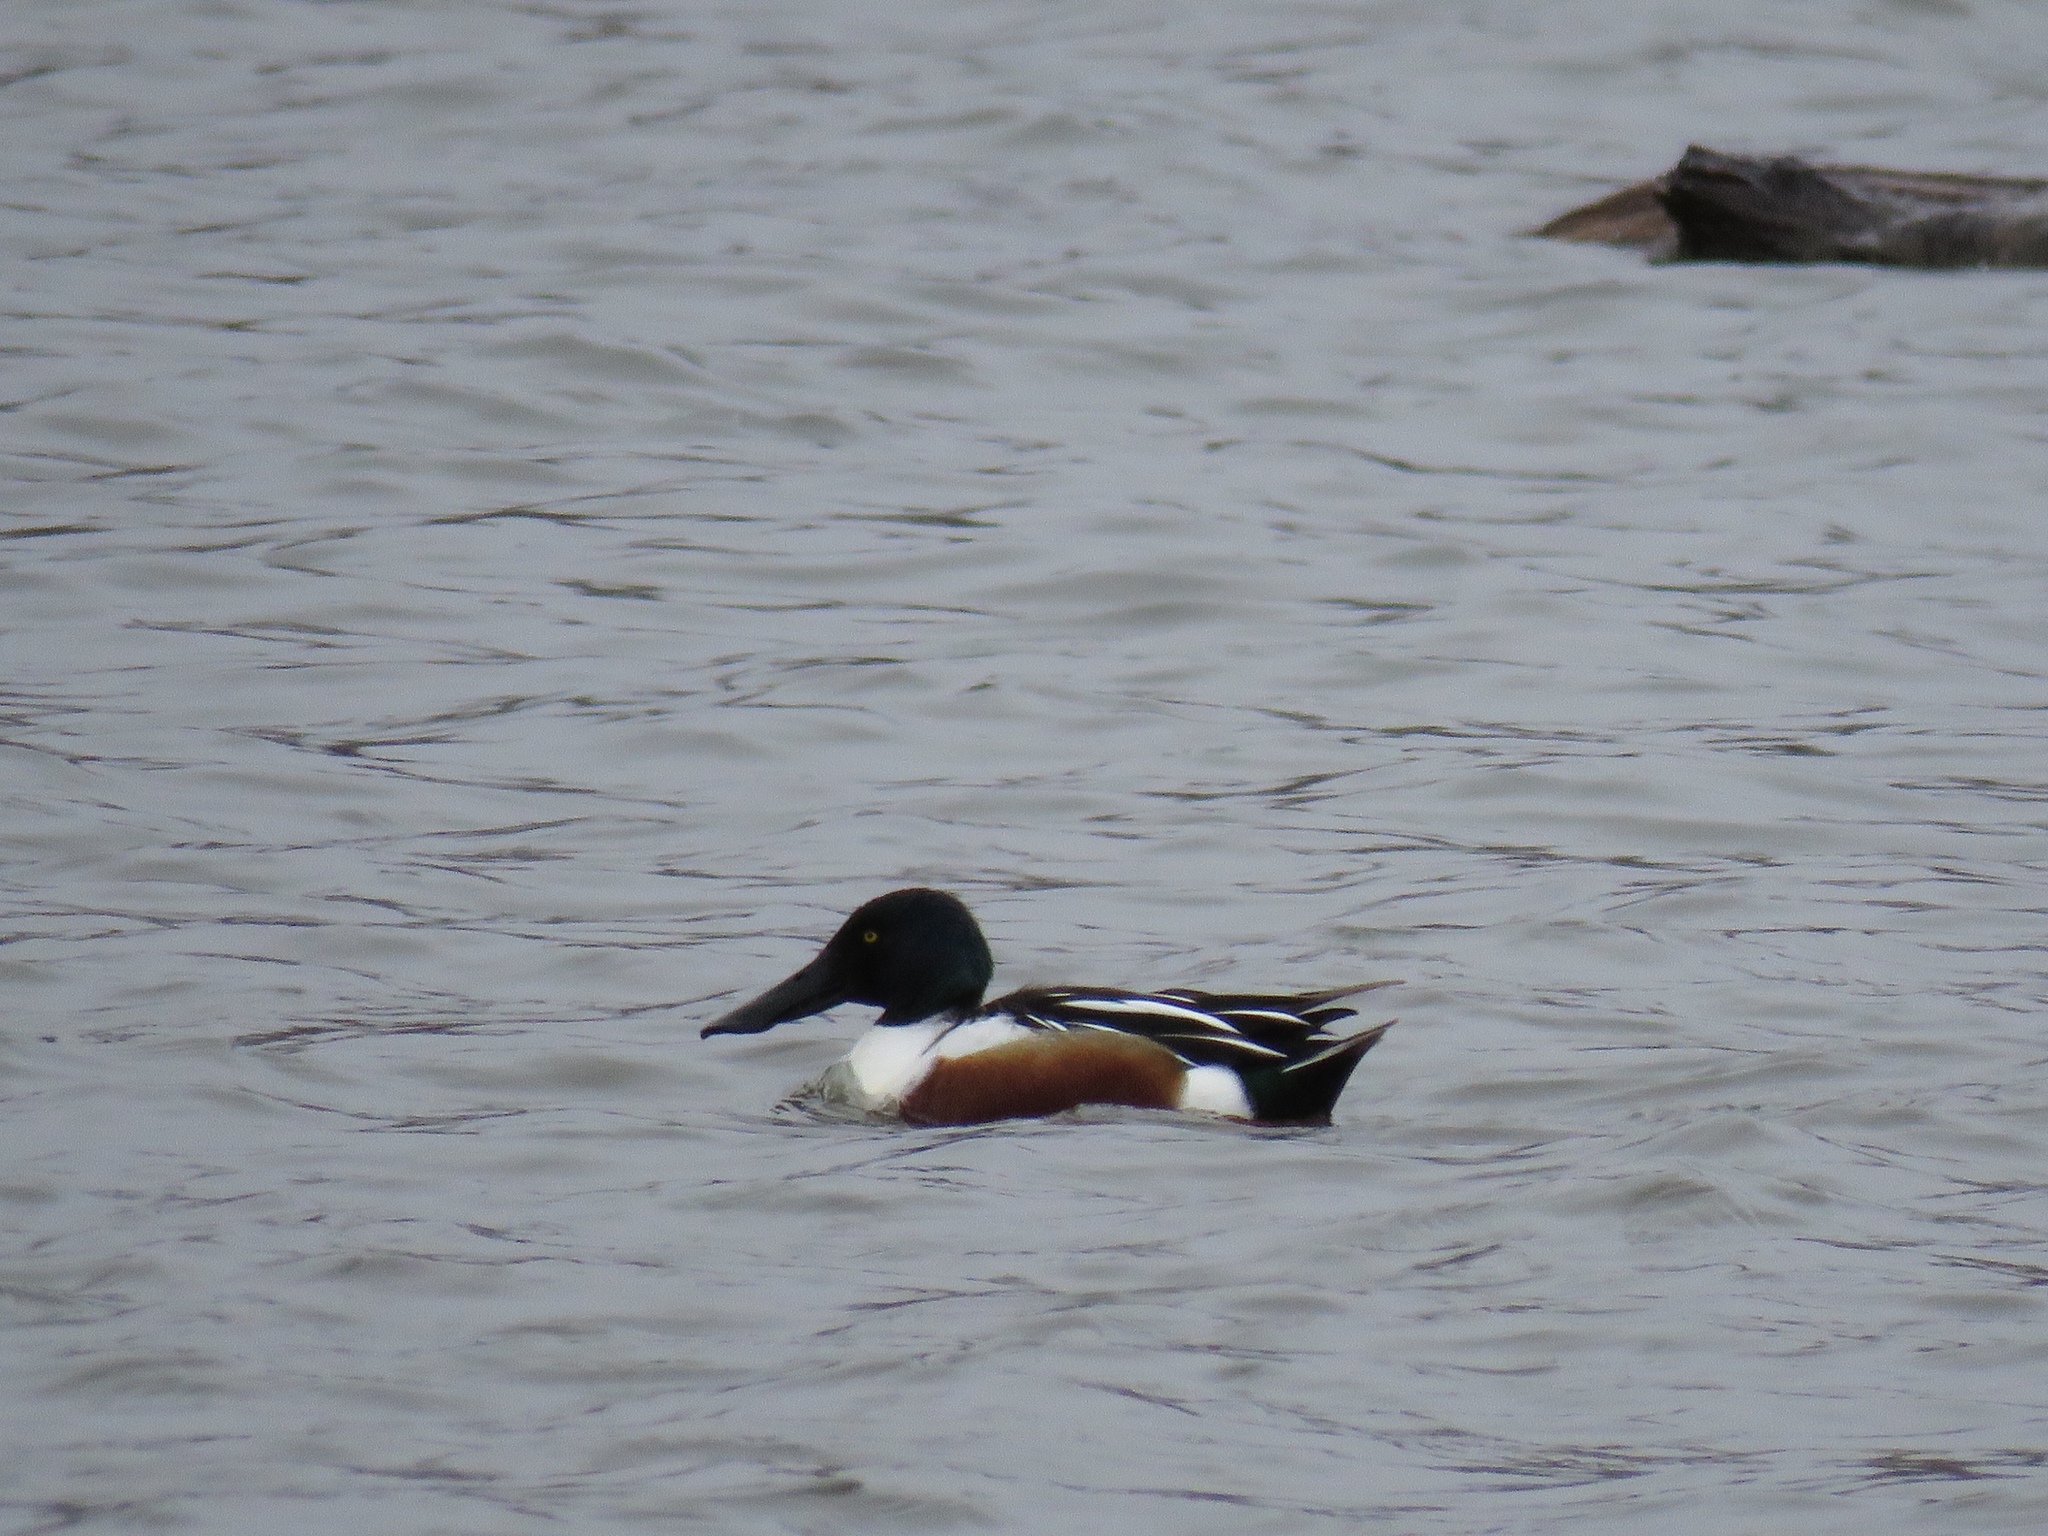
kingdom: Animalia
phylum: Chordata
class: Aves
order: Anseriformes
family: Anatidae
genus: Spatula
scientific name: Spatula clypeata
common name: Northern shoveler
